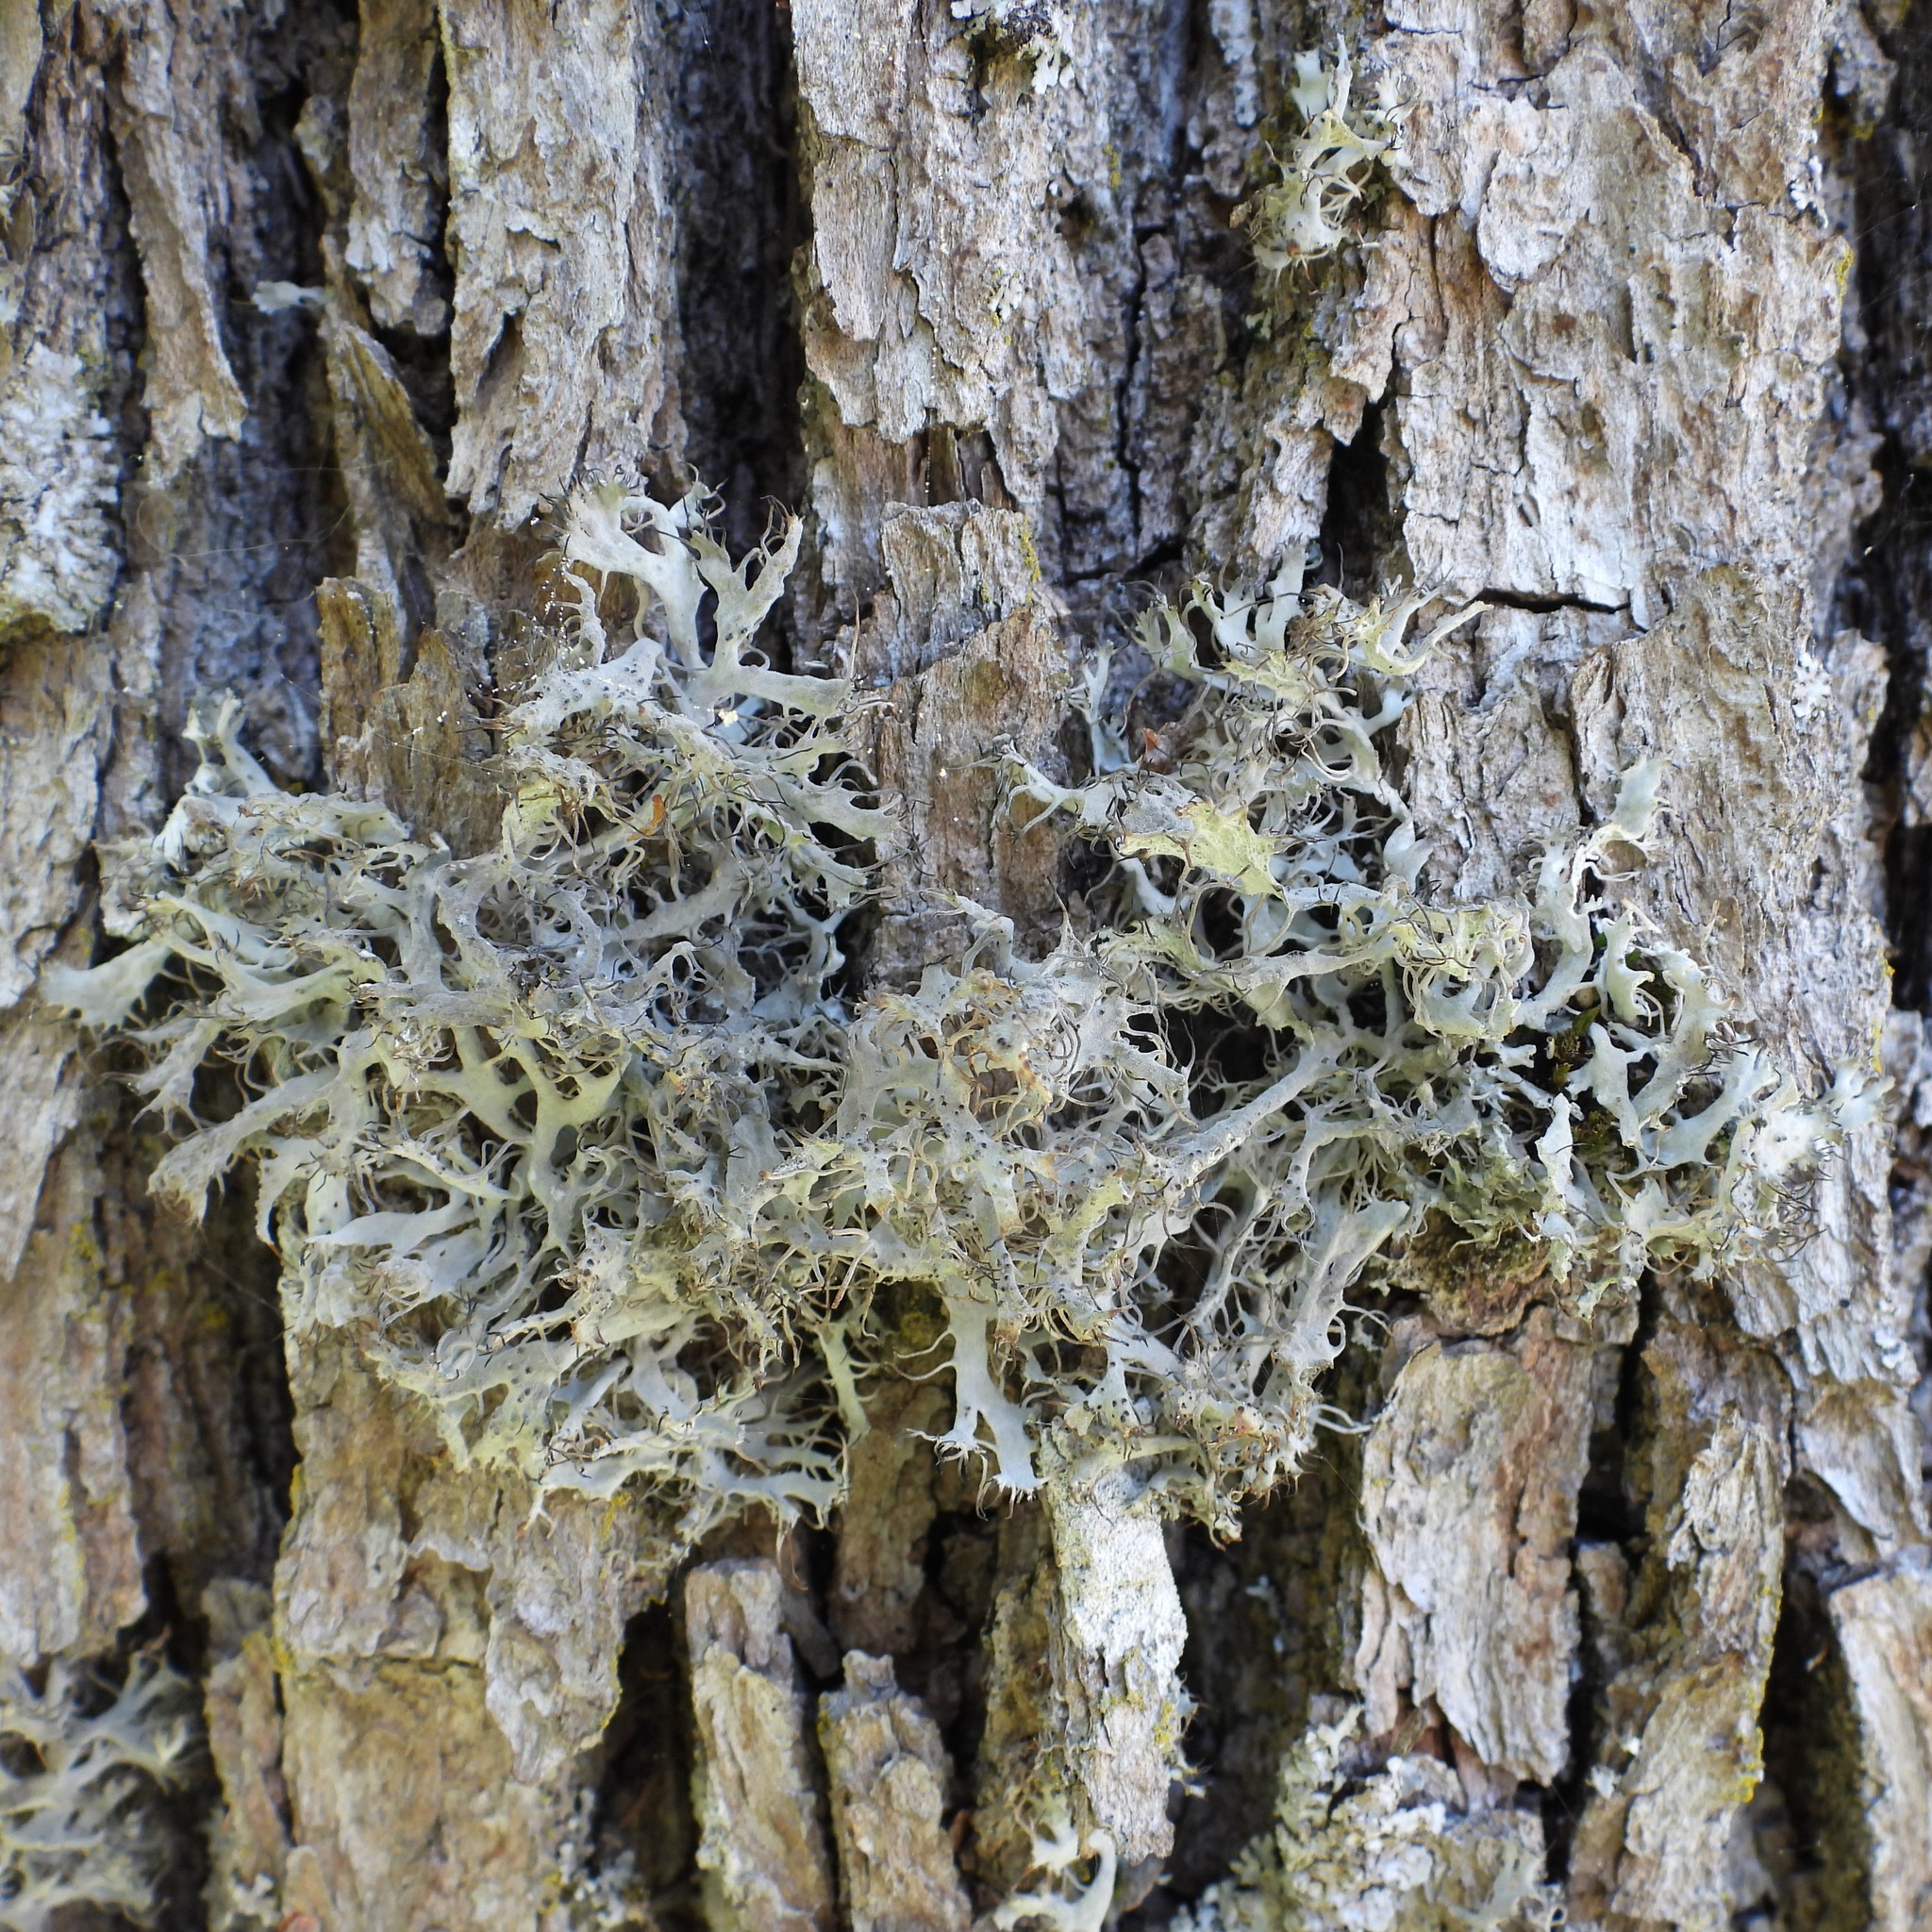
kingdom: Fungi
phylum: Ascomycota
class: Lecanoromycetes
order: Caliciales
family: Physciaceae
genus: Anaptychia
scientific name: Anaptychia ciliaris
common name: Great ciliated lichen
